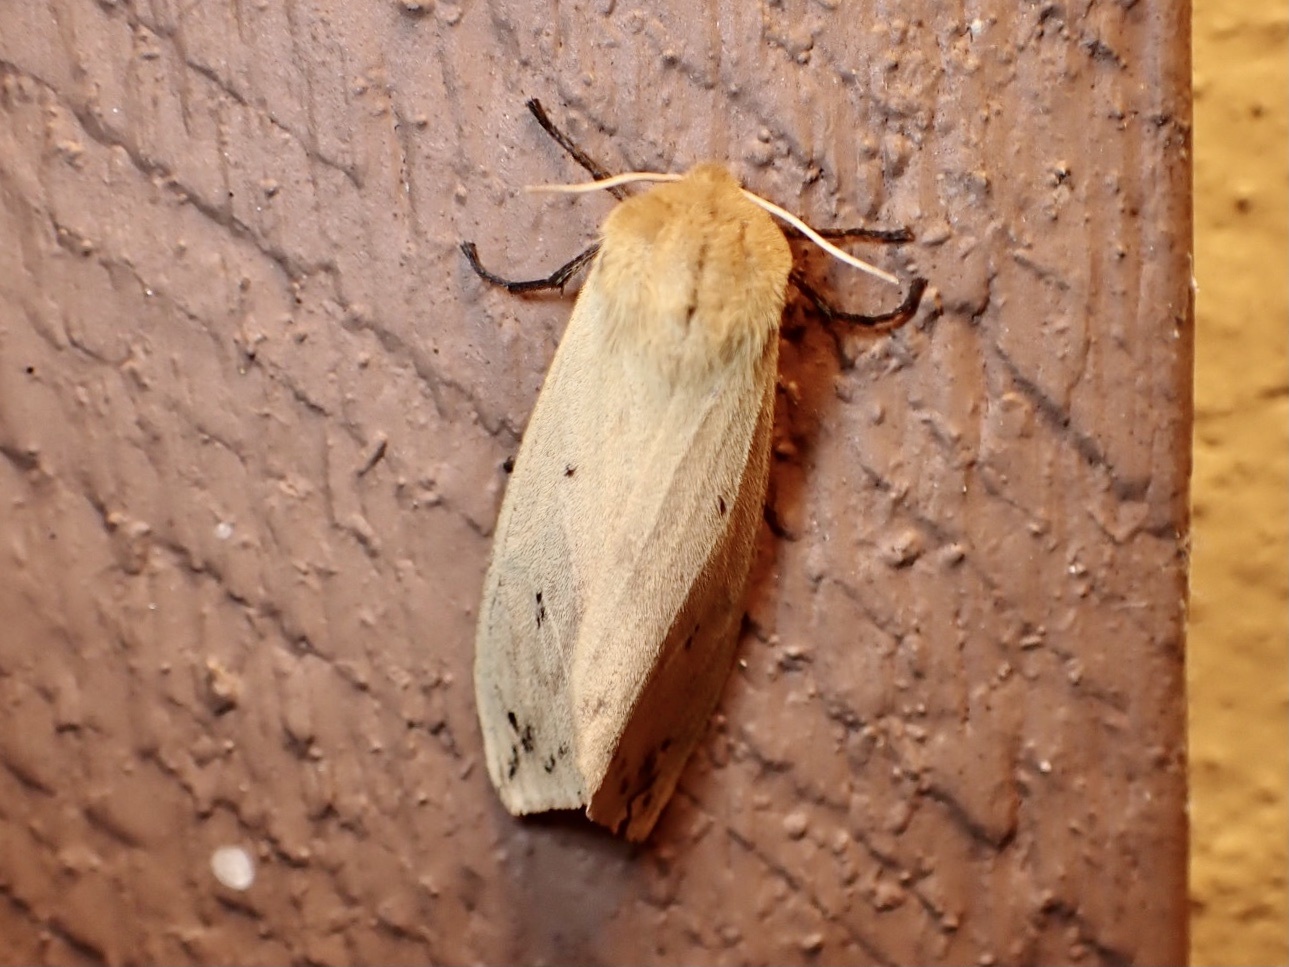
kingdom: Animalia
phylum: Arthropoda
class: Insecta
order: Lepidoptera
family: Erebidae
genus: Pyrrharctia
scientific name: Pyrrharctia isabella
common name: Isabella tiger moth
